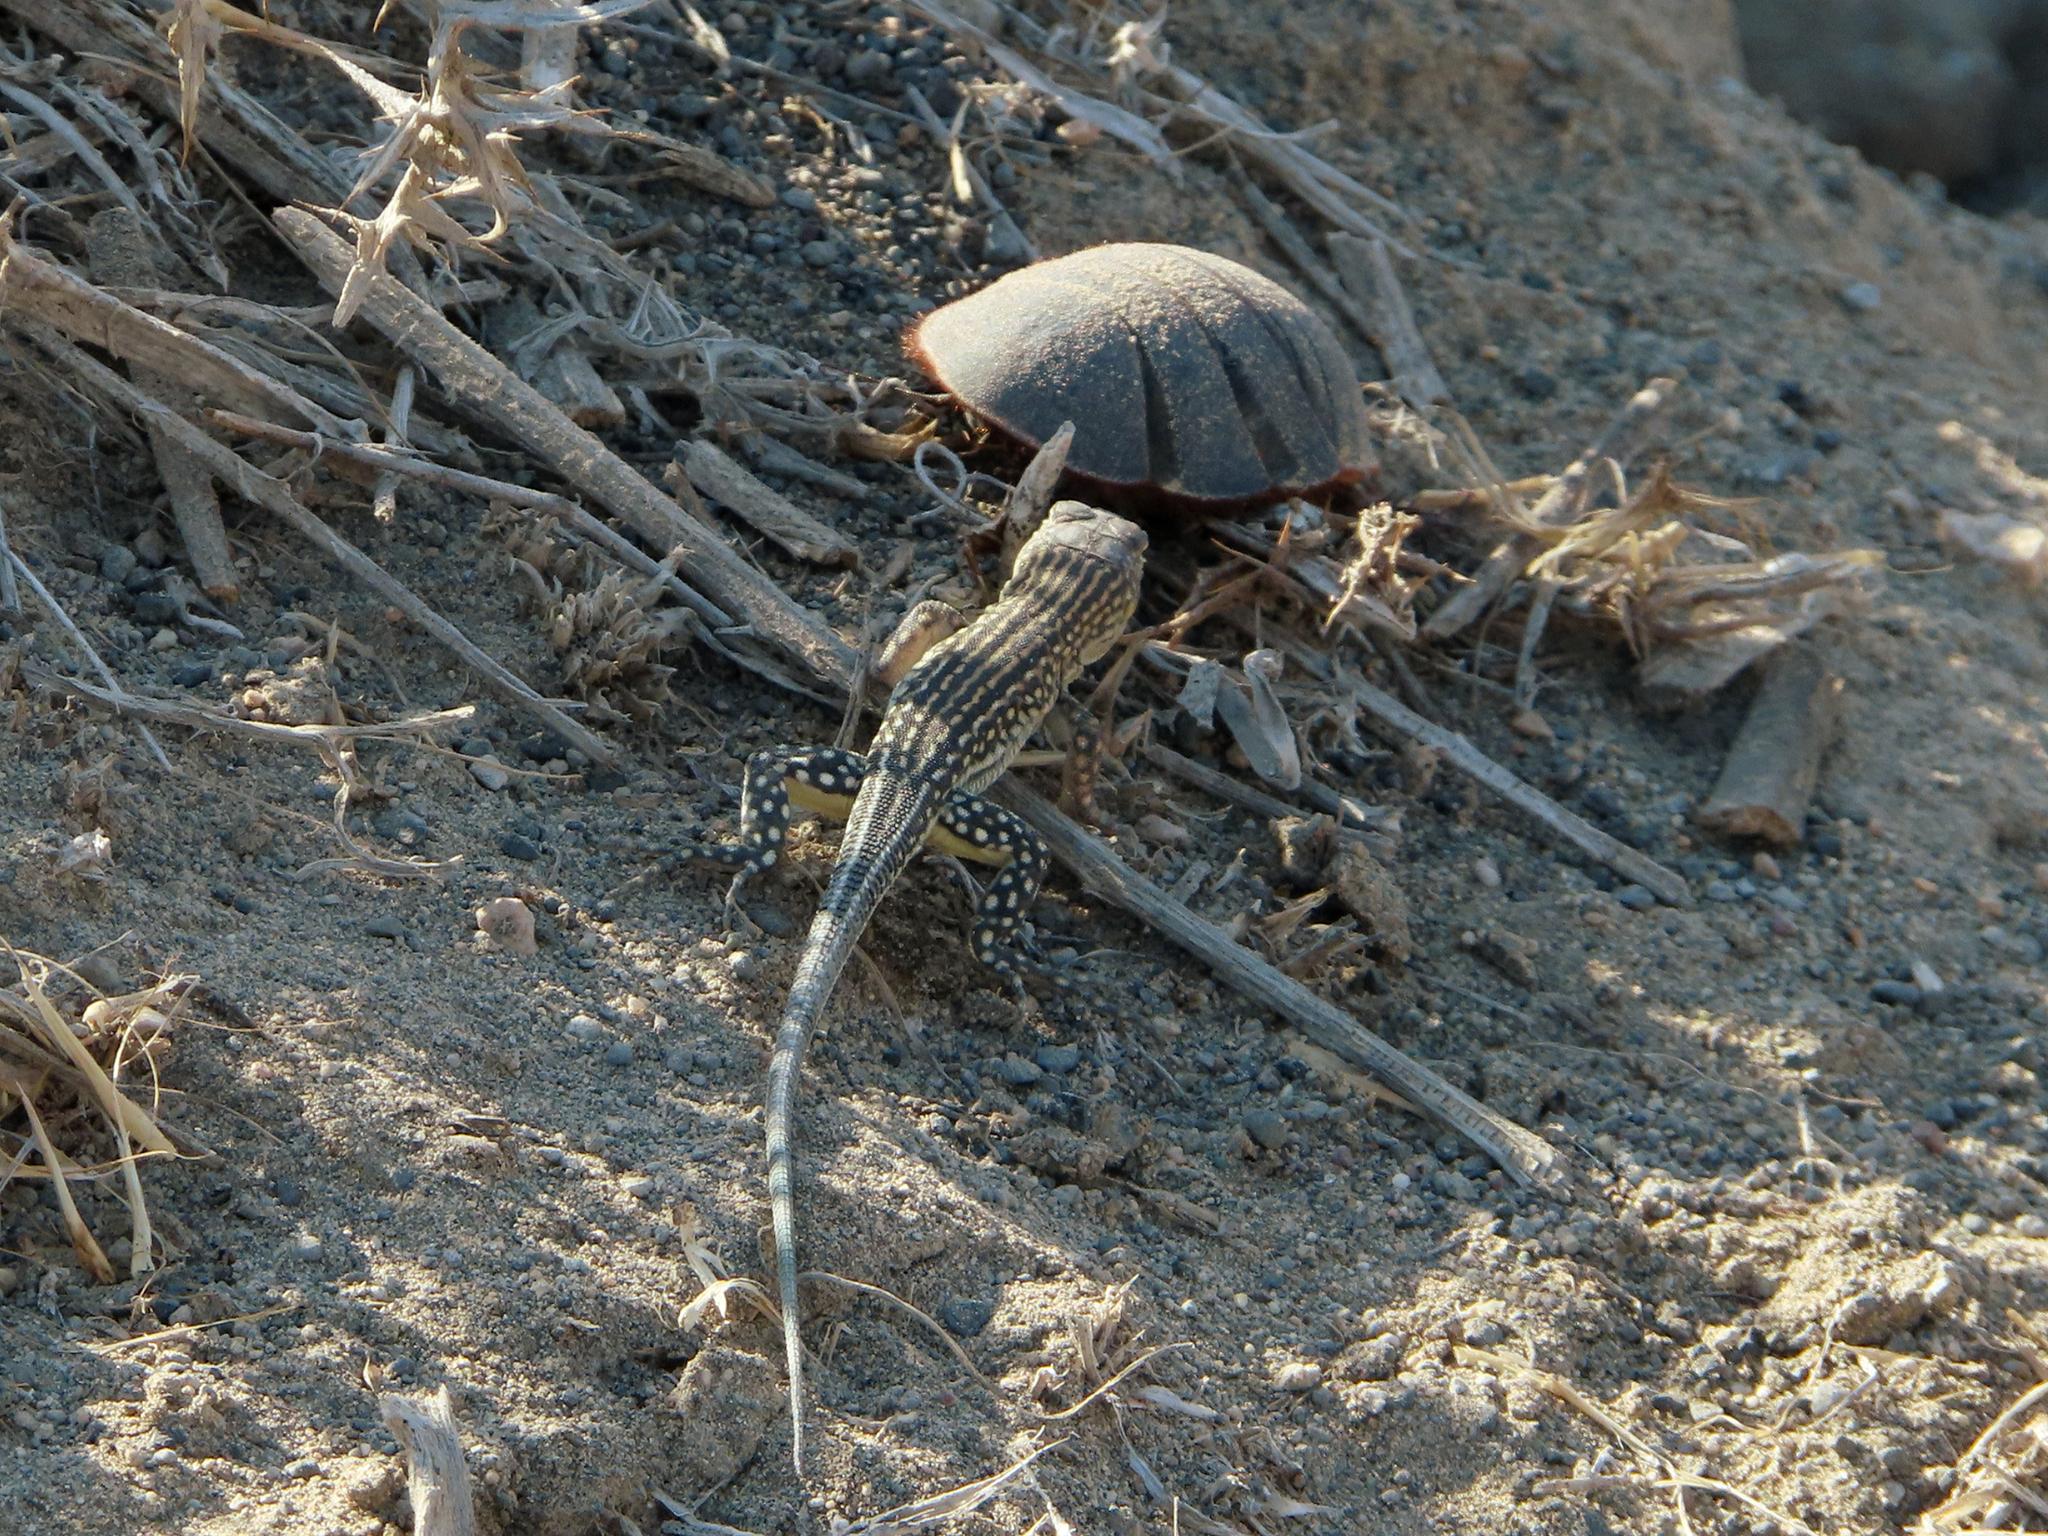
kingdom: Animalia
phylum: Chordata
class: Squamata
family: Lacertidae
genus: Eremias
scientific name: Eremias strauchi
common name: Strauch's racerunner
